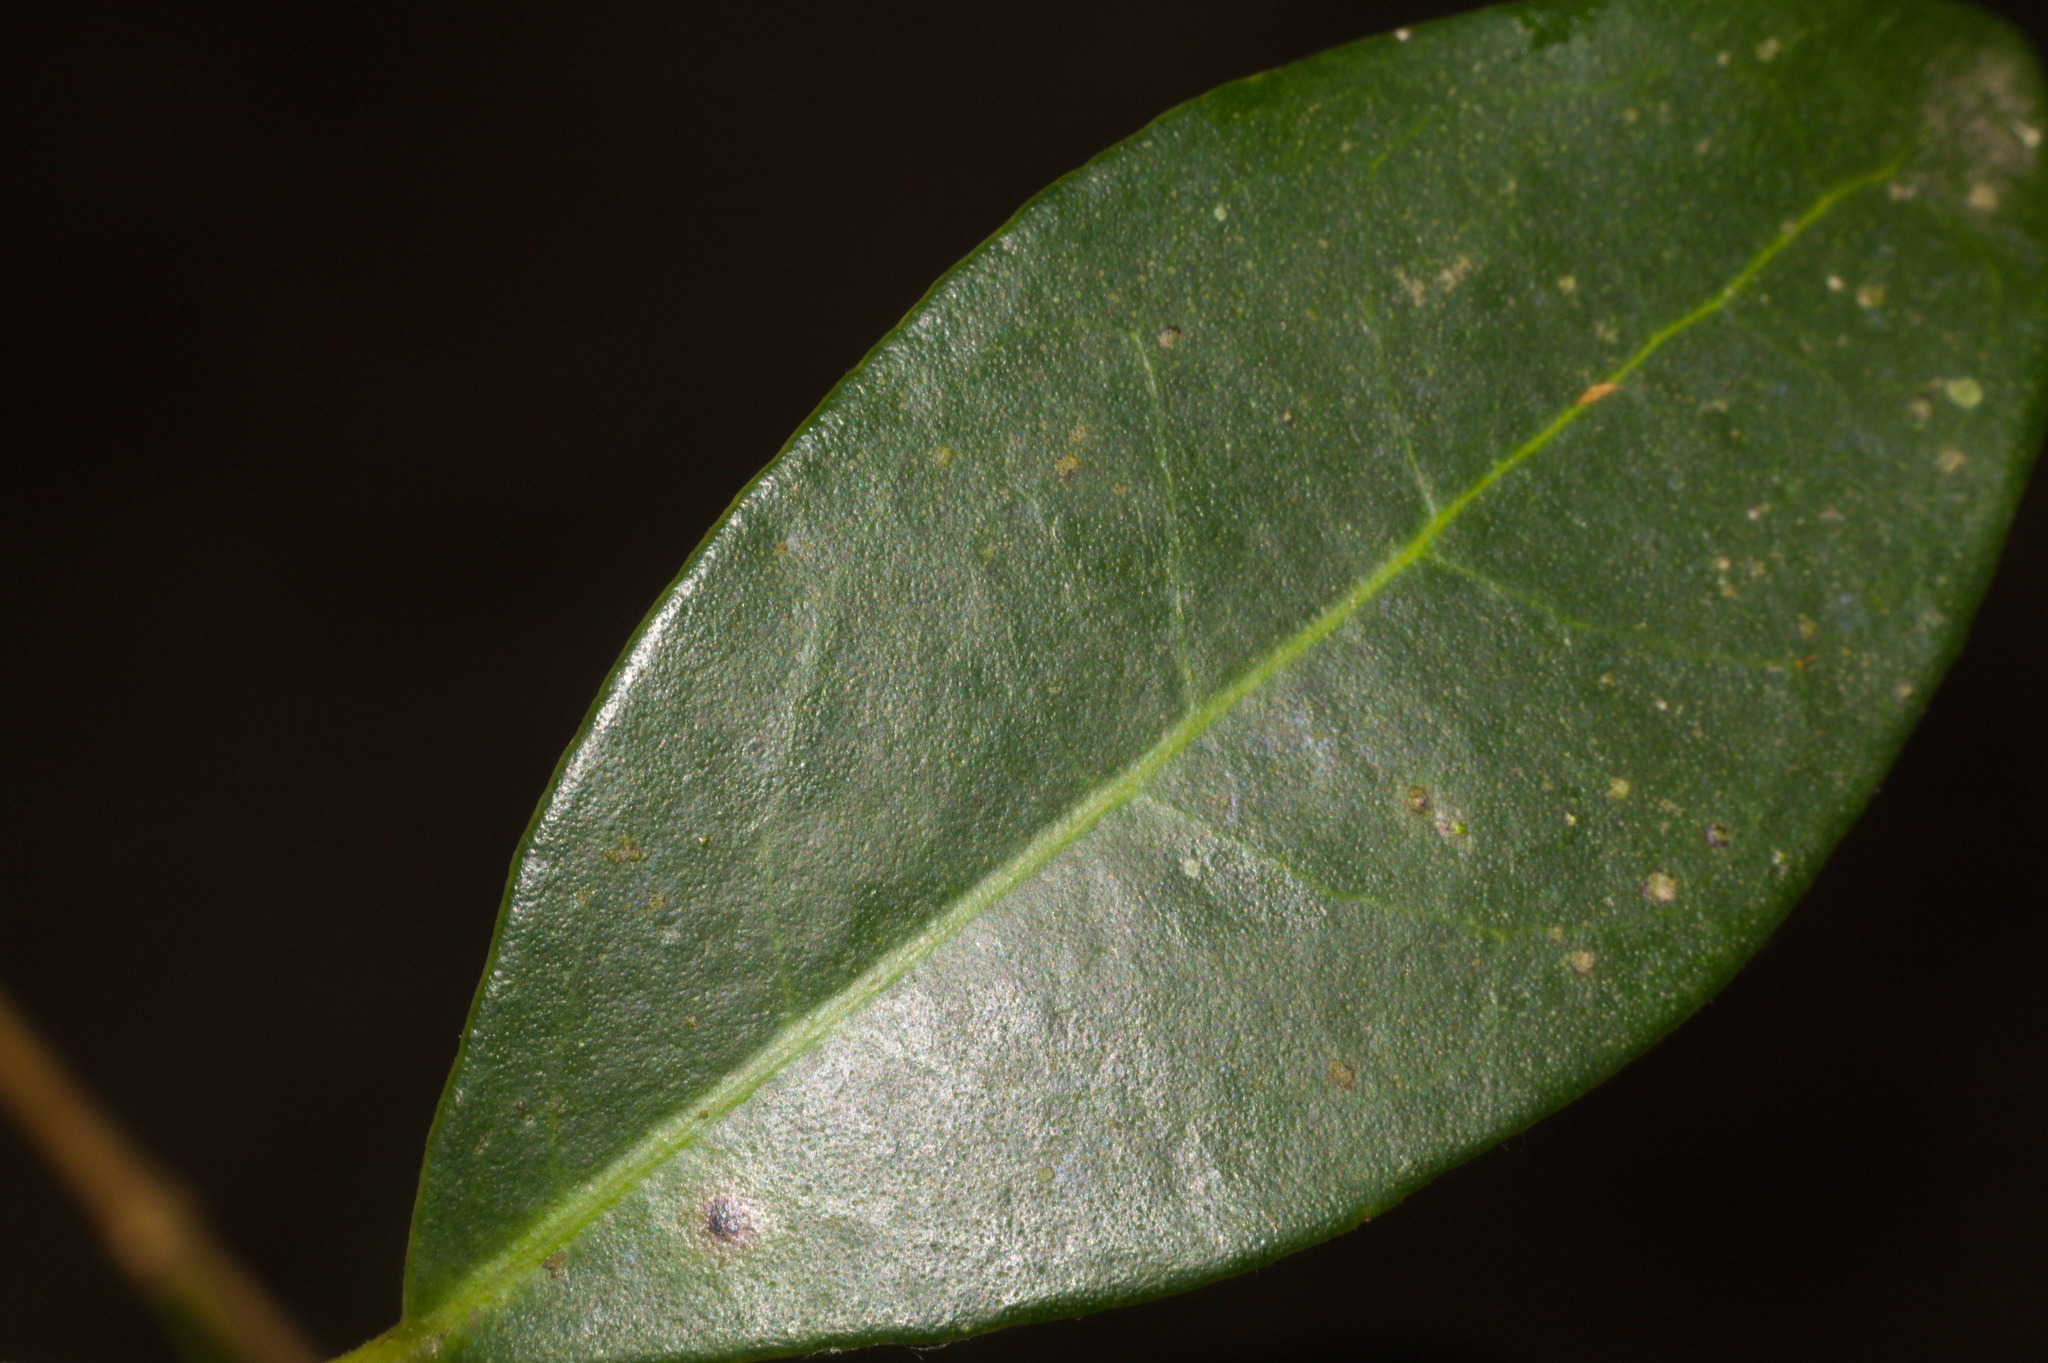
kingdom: Plantae
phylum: Tracheophyta
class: Magnoliopsida
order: Myrtales
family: Myrtaceae
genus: Eugenia
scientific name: Eugenia hiemalis
